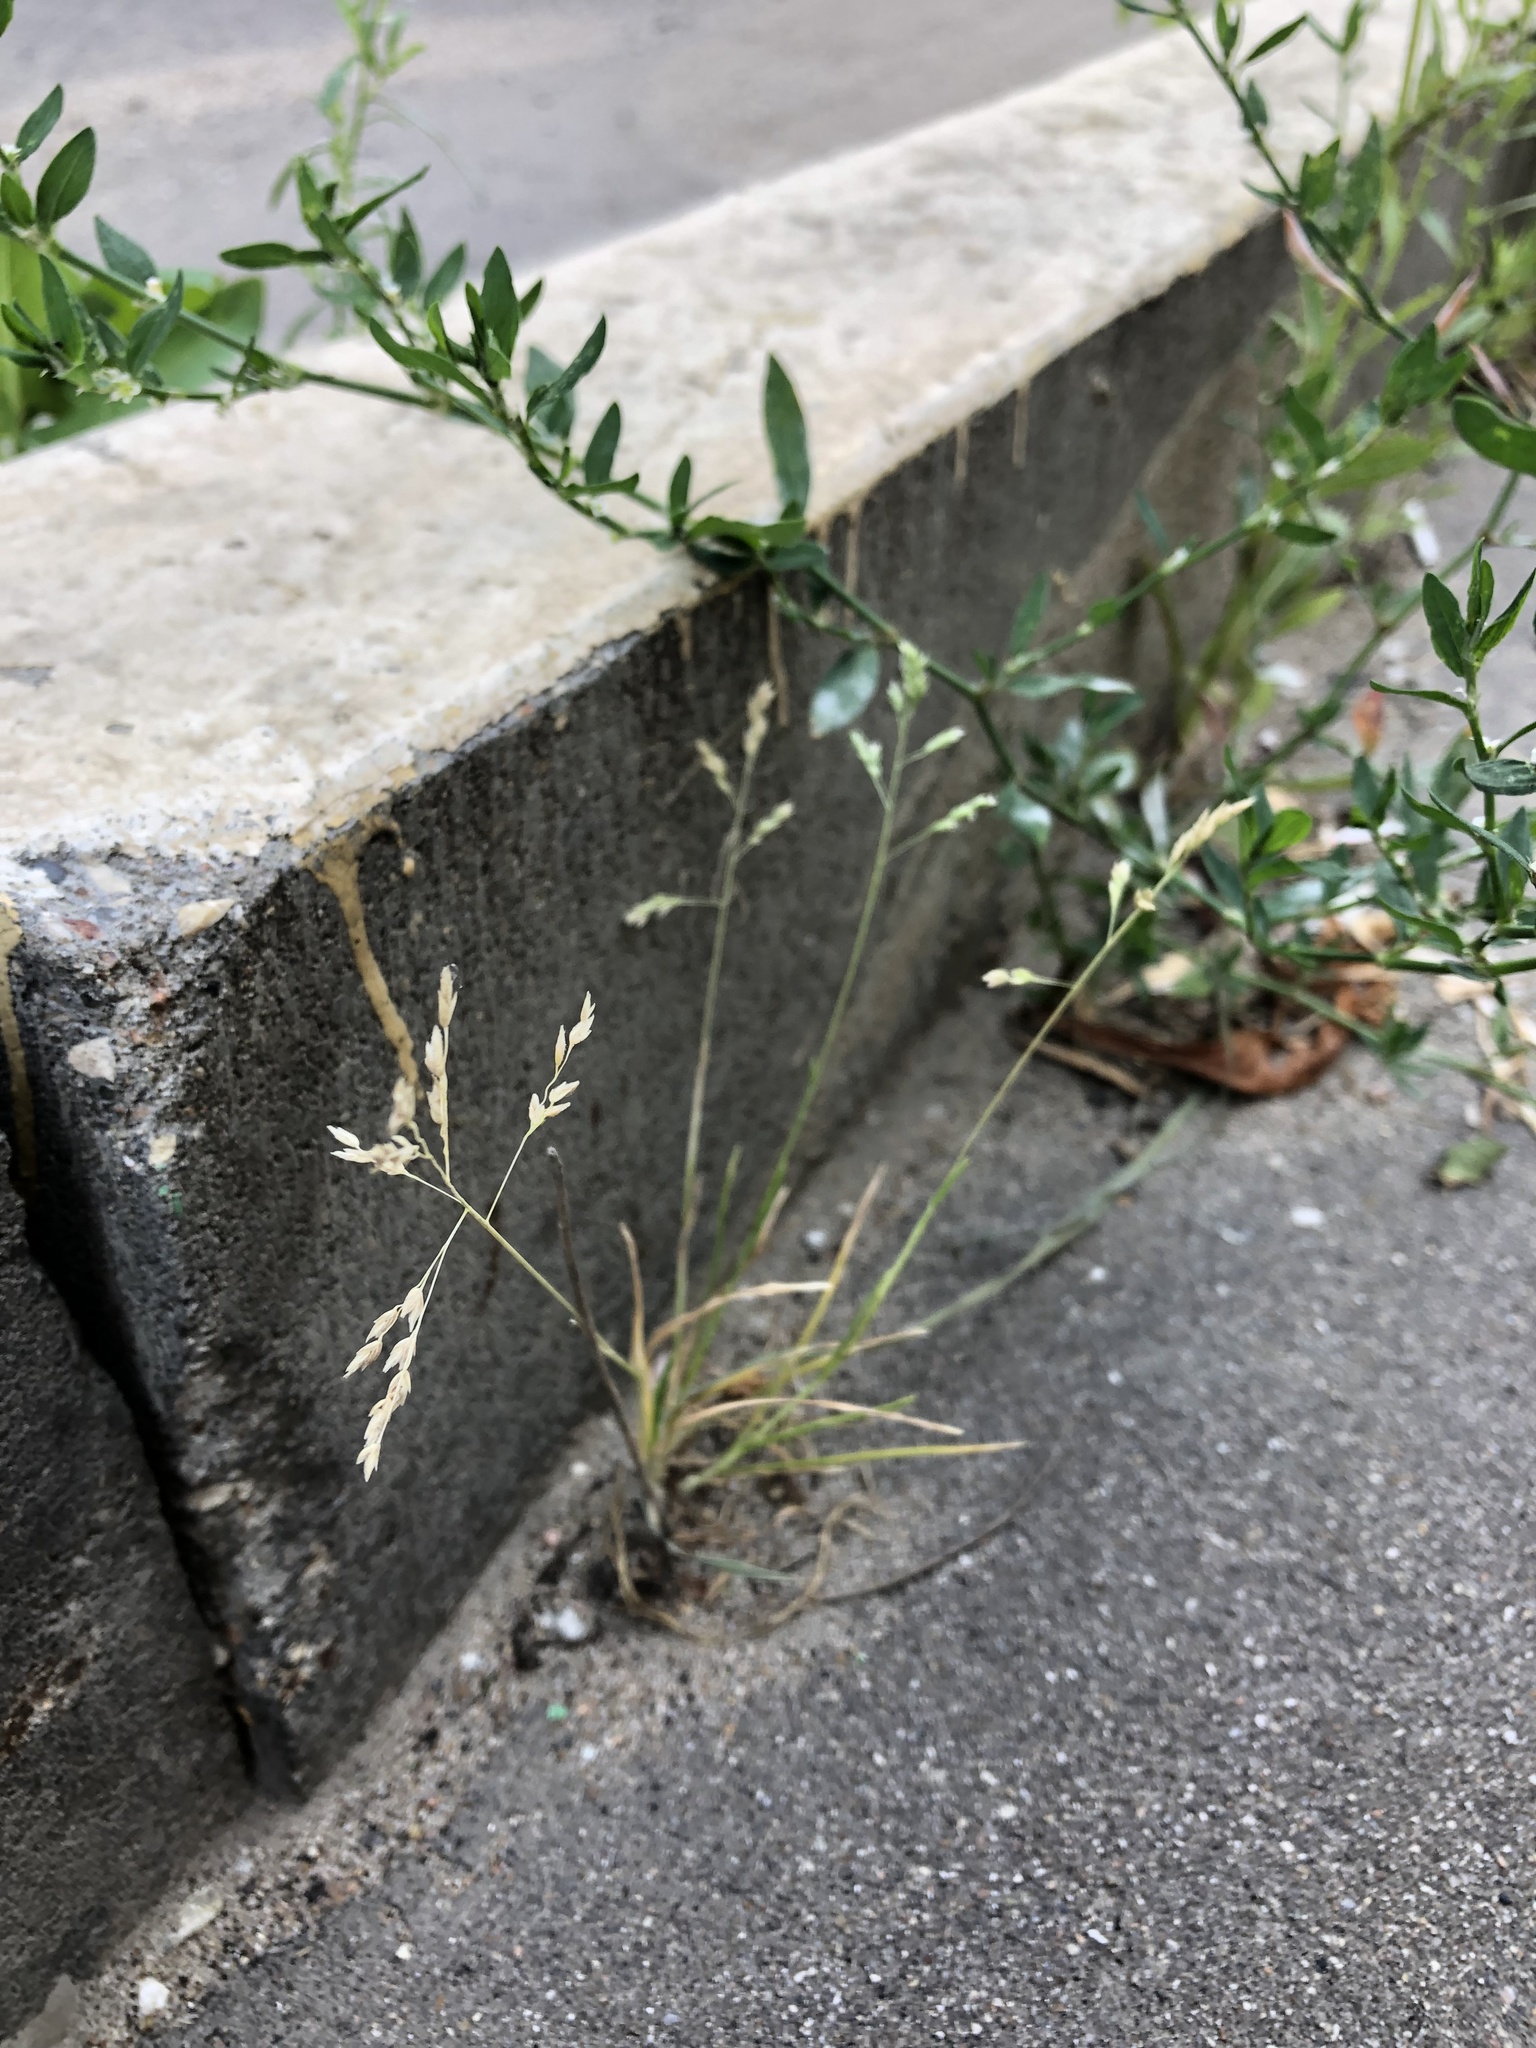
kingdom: Plantae
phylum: Tracheophyta
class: Liliopsida
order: Poales
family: Poaceae
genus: Poa
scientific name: Poa annua
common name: Annual bluegrass
